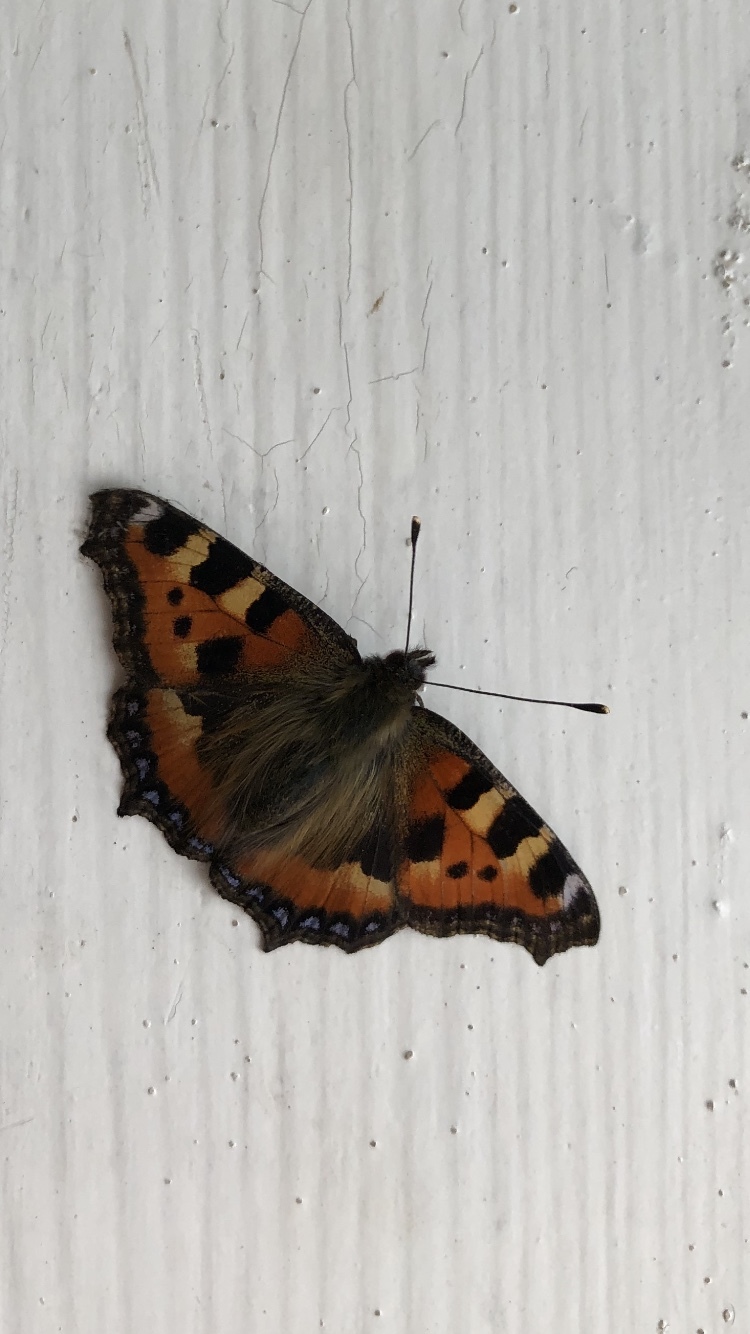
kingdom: Animalia
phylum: Arthropoda
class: Insecta
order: Lepidoptera
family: Nymphalidae
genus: Aglais
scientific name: Aglais urticae
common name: Small tortoiseshell
